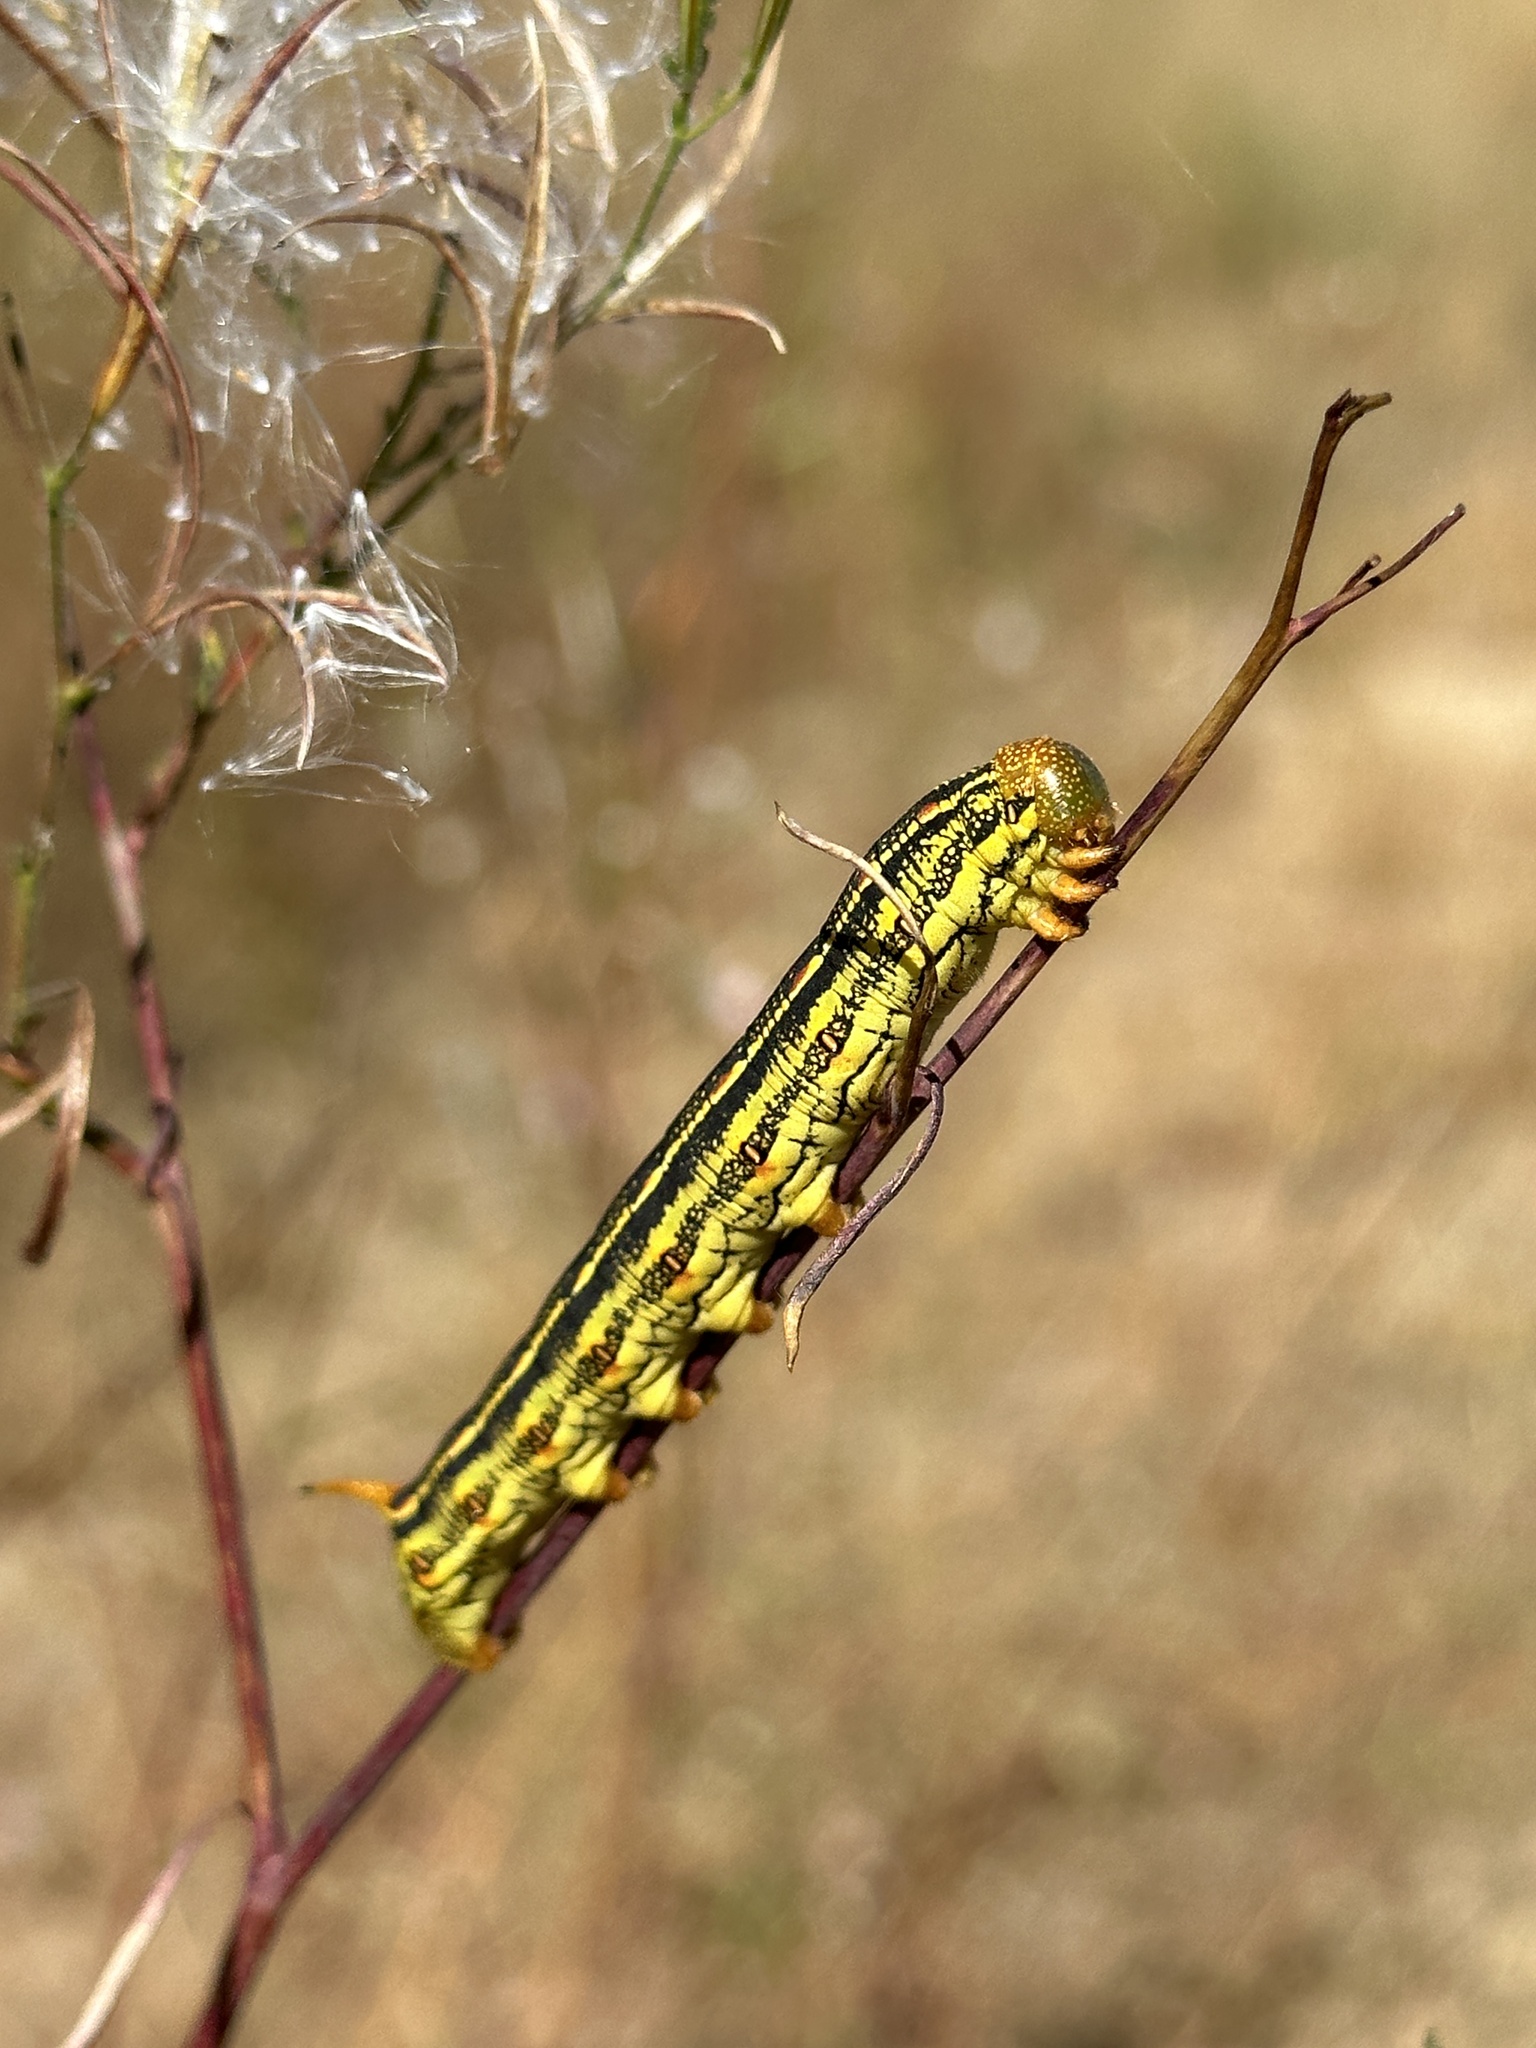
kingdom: Animalia
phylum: Arthropoda
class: Insecta
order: Lepidoptera
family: Sphingidae
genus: Hyles
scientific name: Hyles lineata
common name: White-lined sphinx
